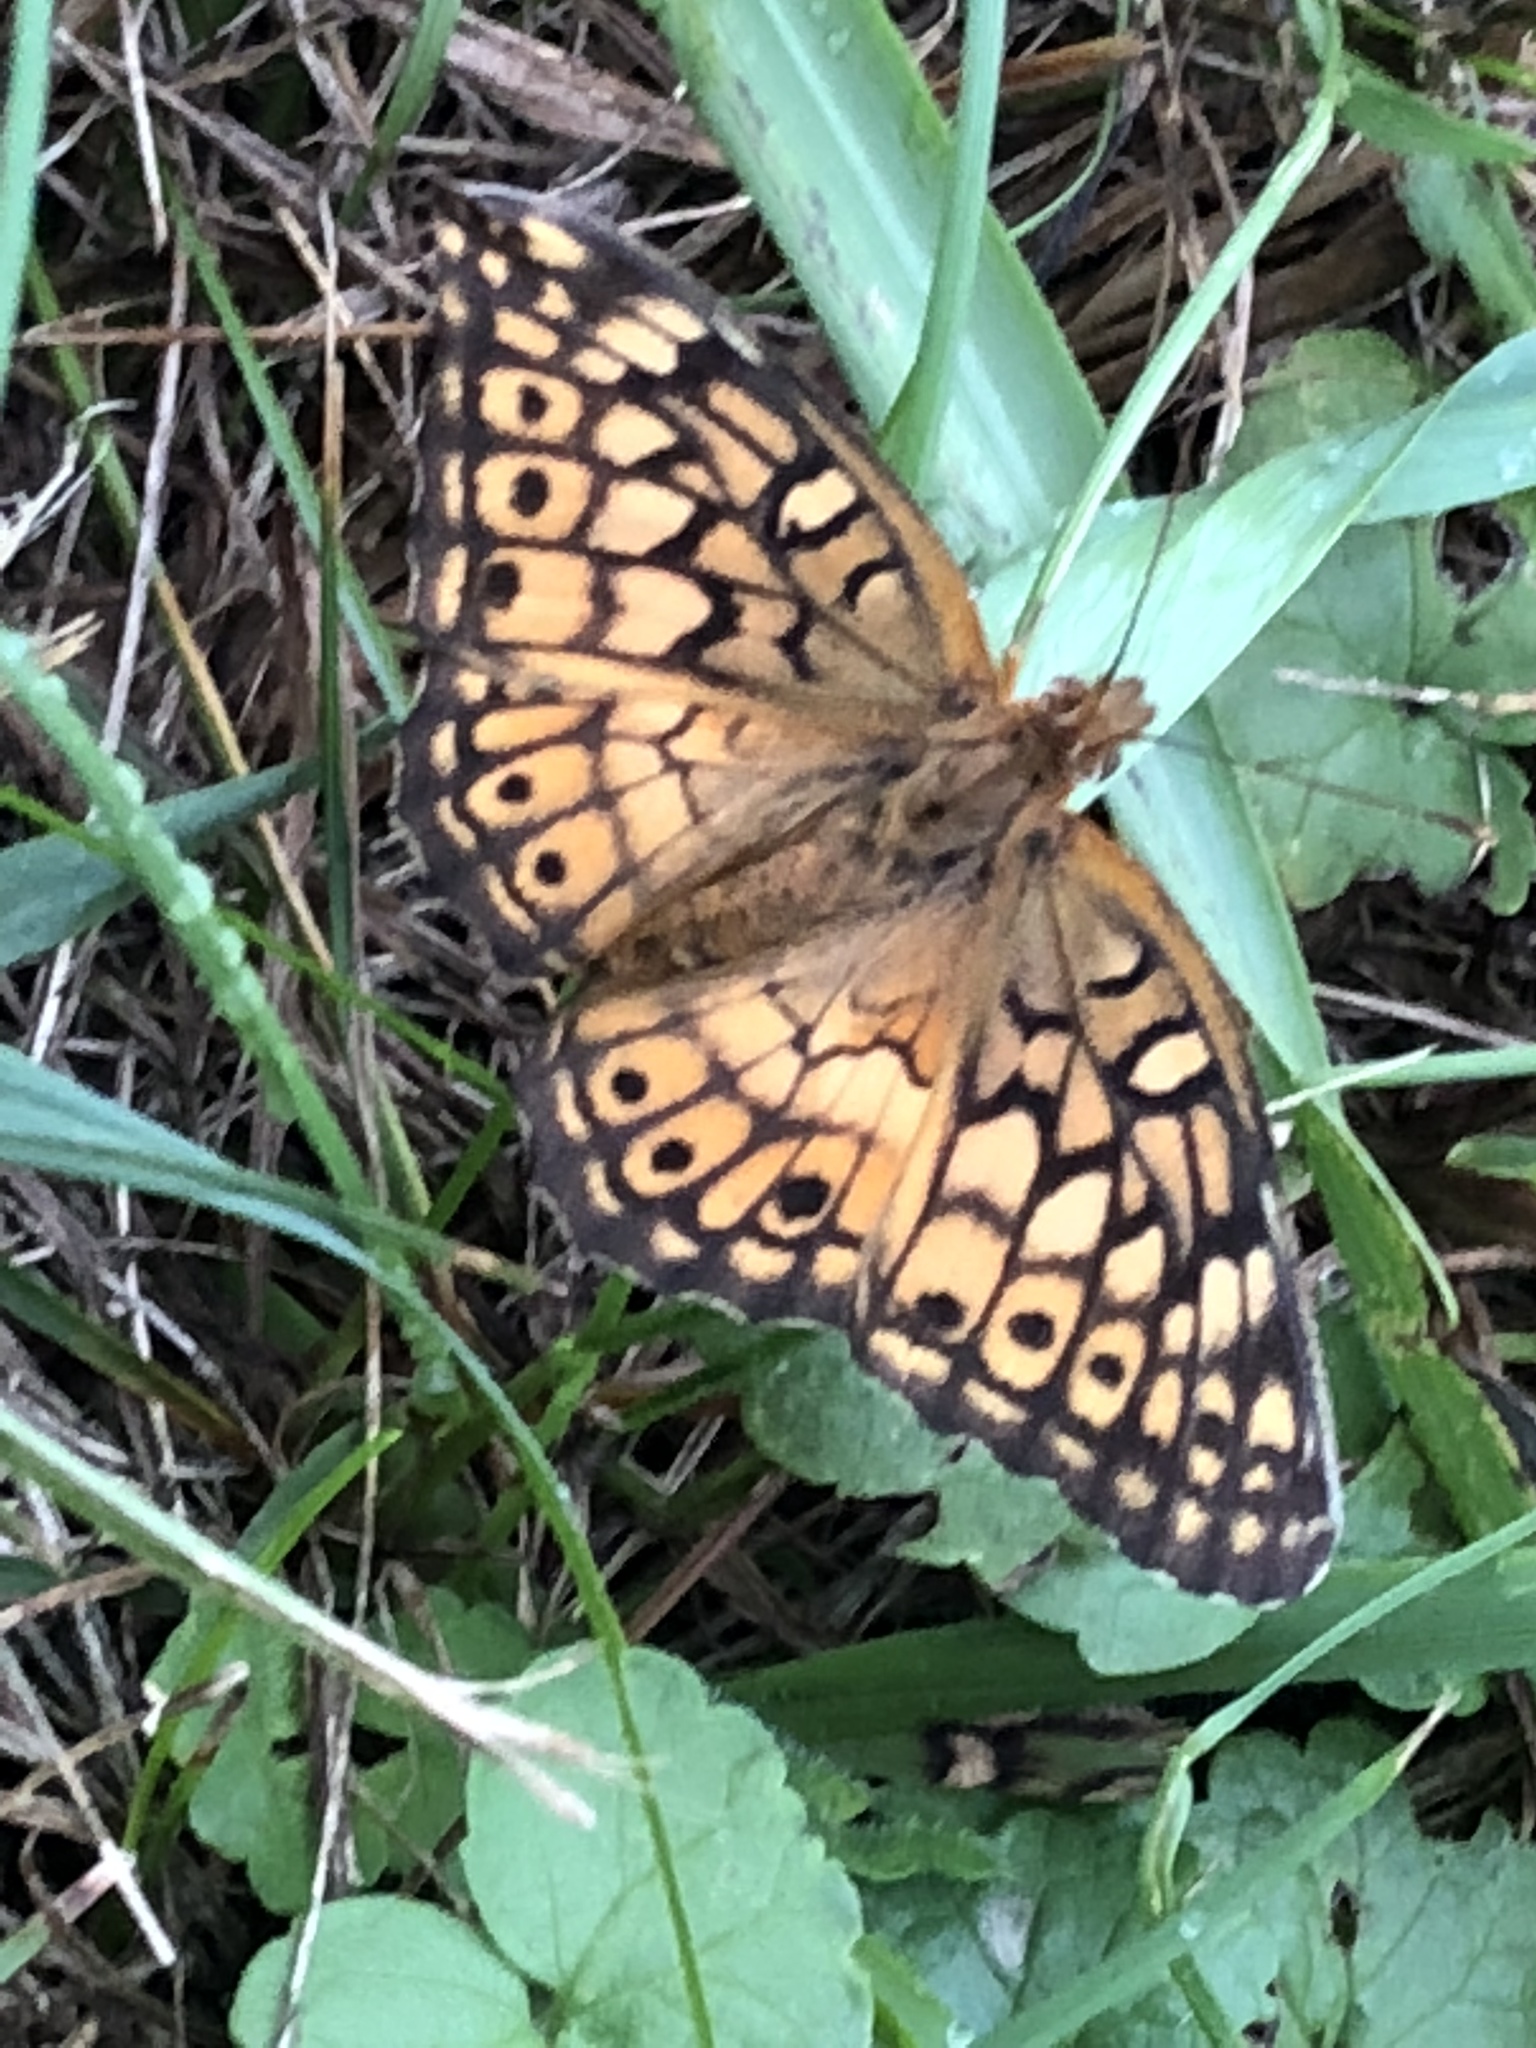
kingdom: Animalia
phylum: Arthropoda
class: Insecta
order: Lepidoptera
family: Nymphalidae
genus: Euptoieta
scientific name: Euptoieta claudia
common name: Variegated fritillary
